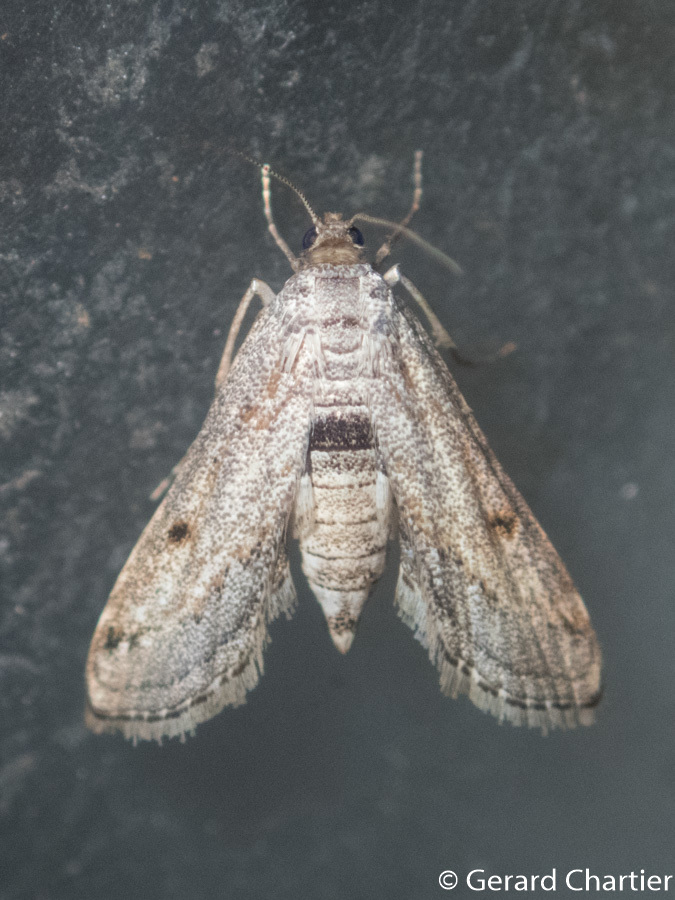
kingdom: Animalia
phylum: Arthropoda
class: Insecta
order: Lepidoptera
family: Crambidae
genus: Parapoynx
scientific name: Parapoynx longialata
